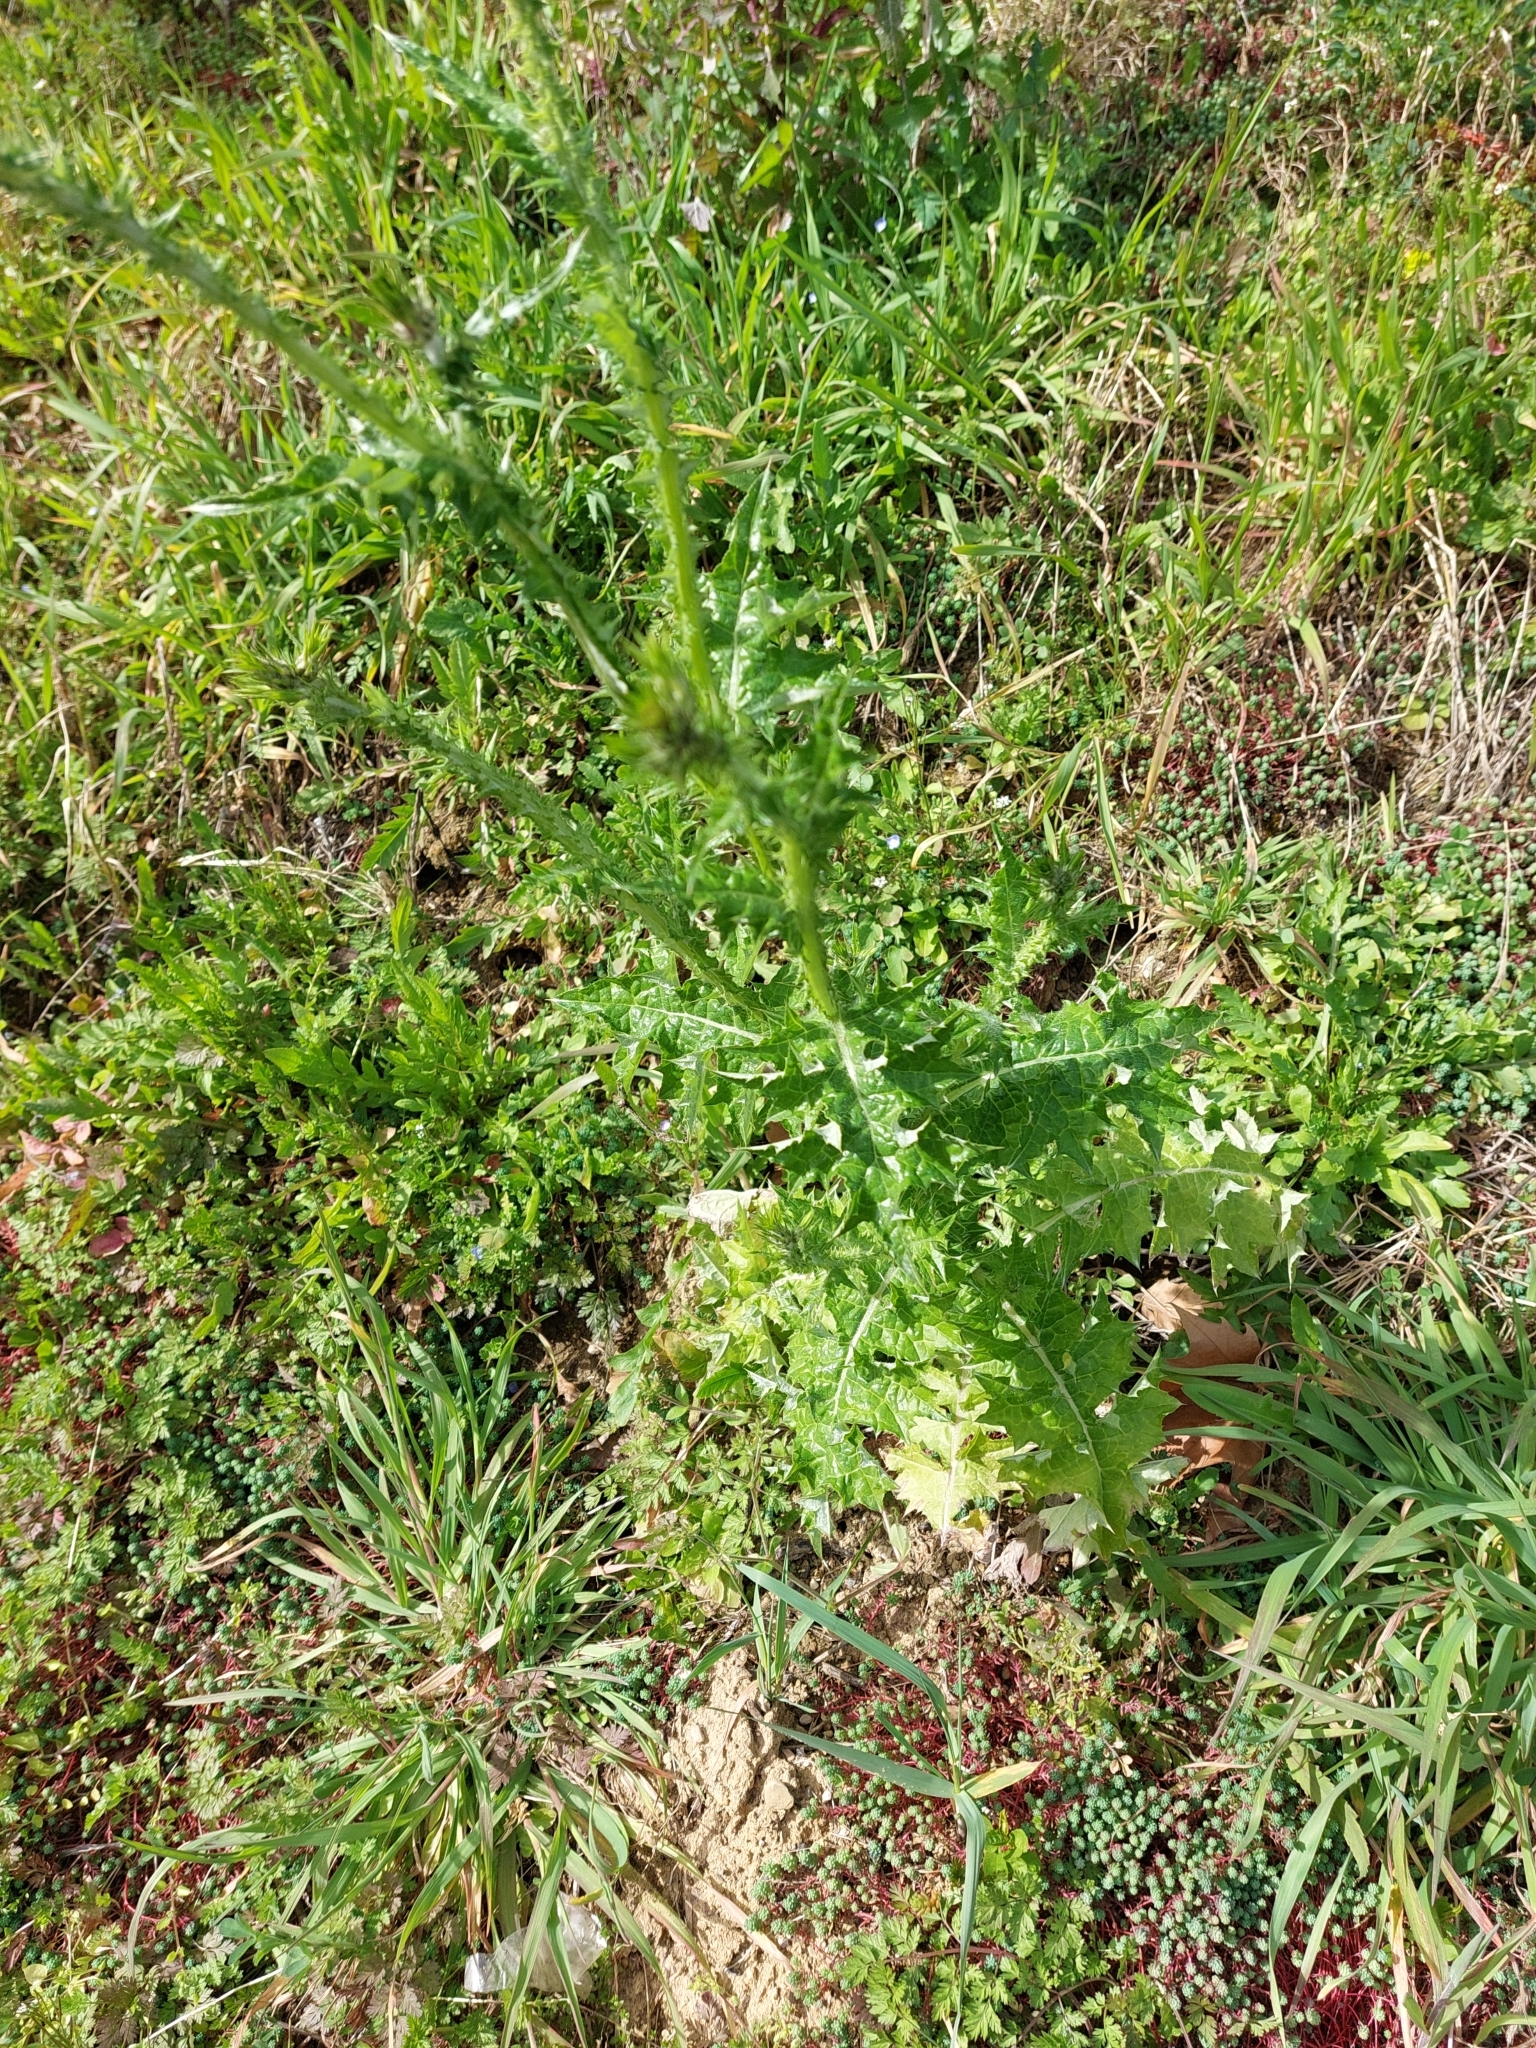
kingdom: Plantae
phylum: Tracheophyta
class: Magnoliopsida
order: Asterales
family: Asteraceae
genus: Carduus
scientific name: Carduus pycnocephalus
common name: Plymouth thistle
